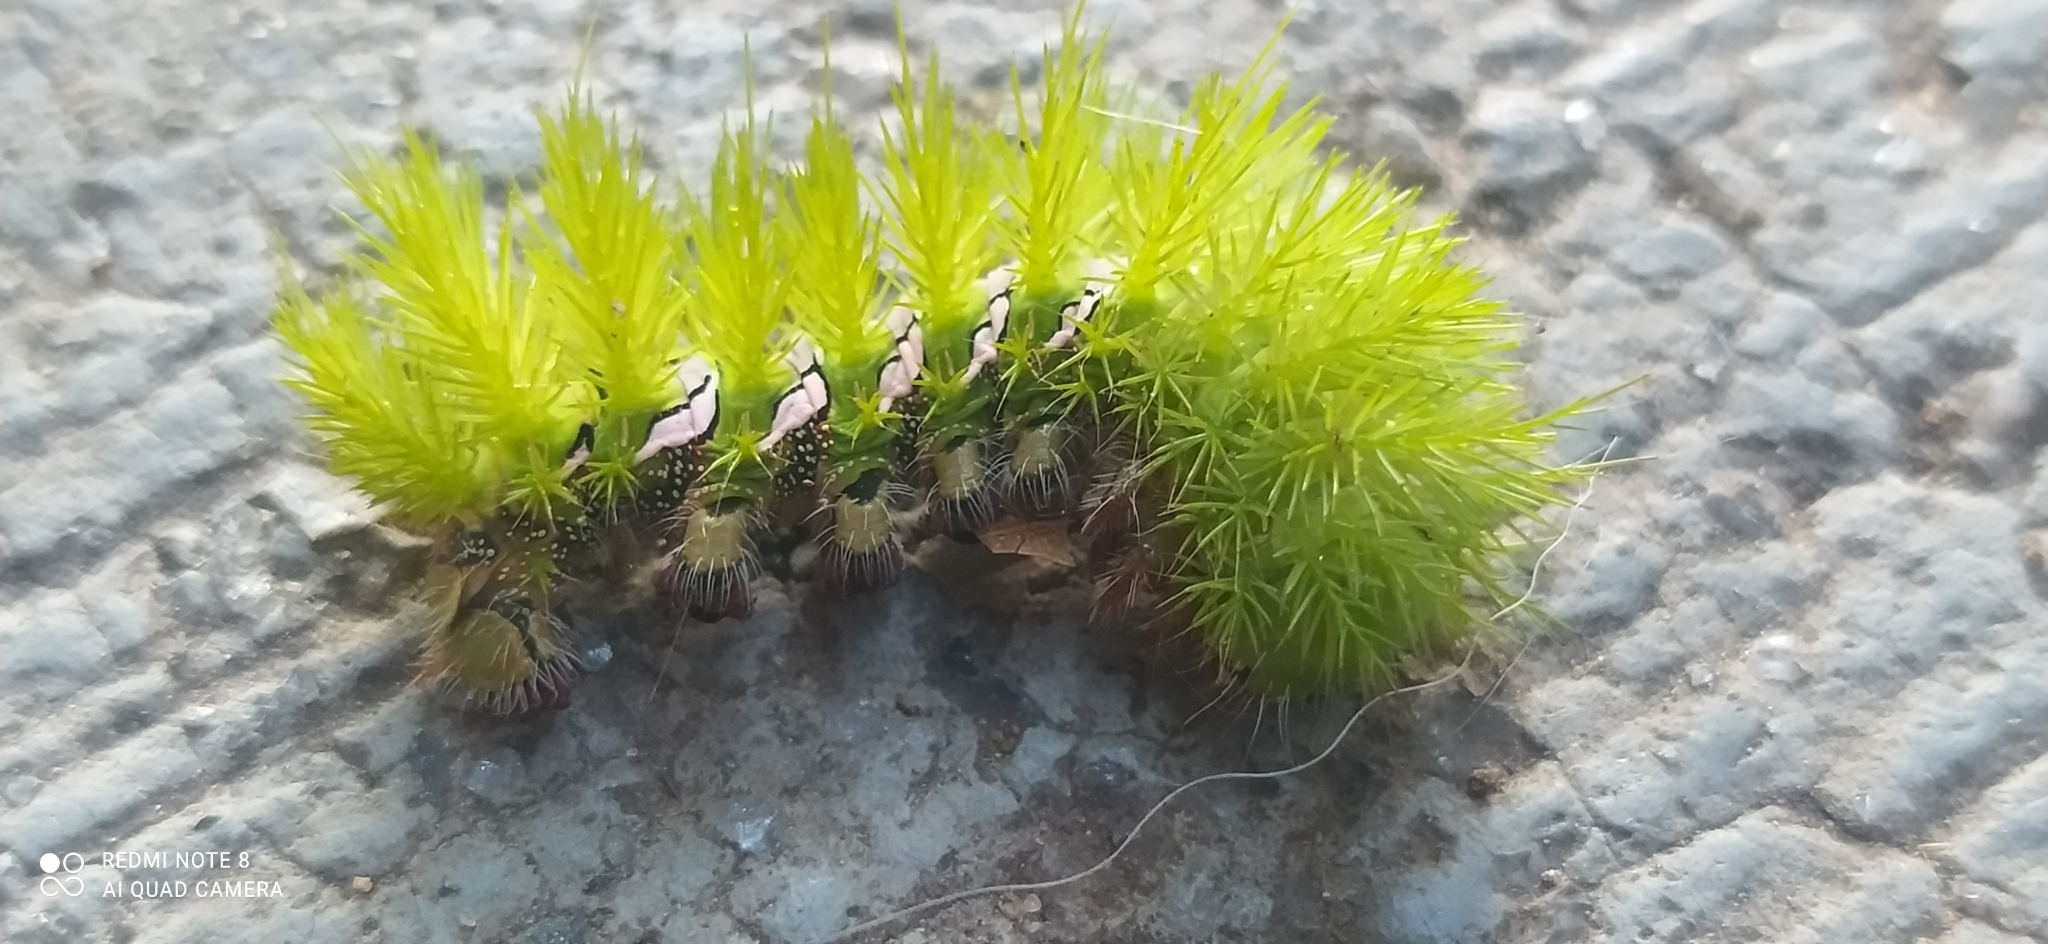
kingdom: Animalia
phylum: Arthropoda
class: Insecta
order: Lepidoptera
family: Saturniidae
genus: Automeris
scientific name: Automeris naranja
